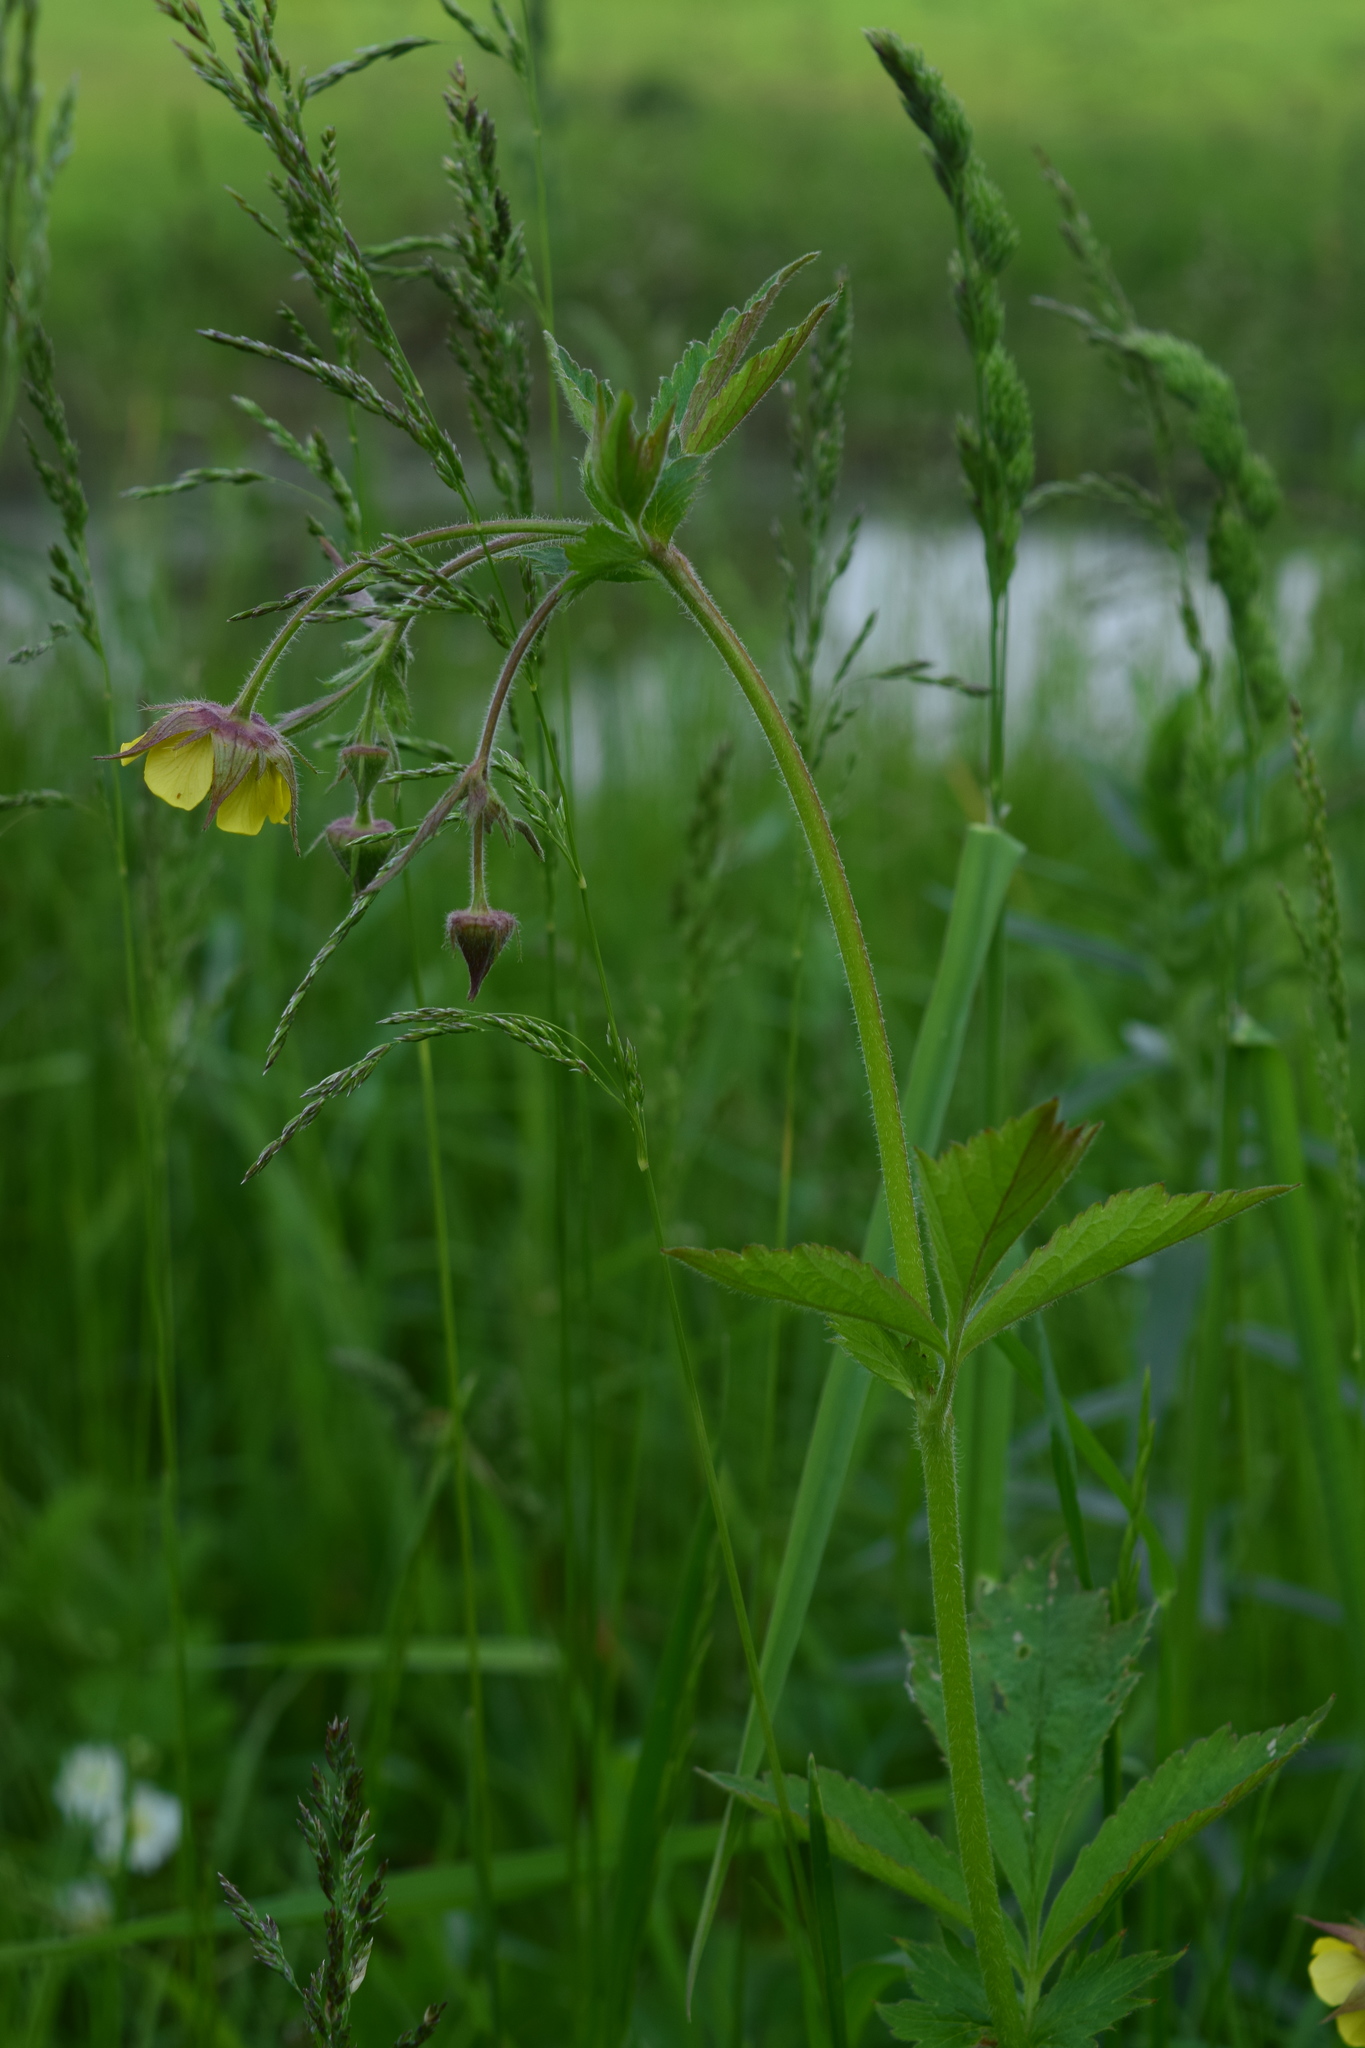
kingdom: Plantae
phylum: Tracheophyta
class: Magnoliopsida
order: Rosales
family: Rosaceae
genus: Geum
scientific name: Geum intermedium
